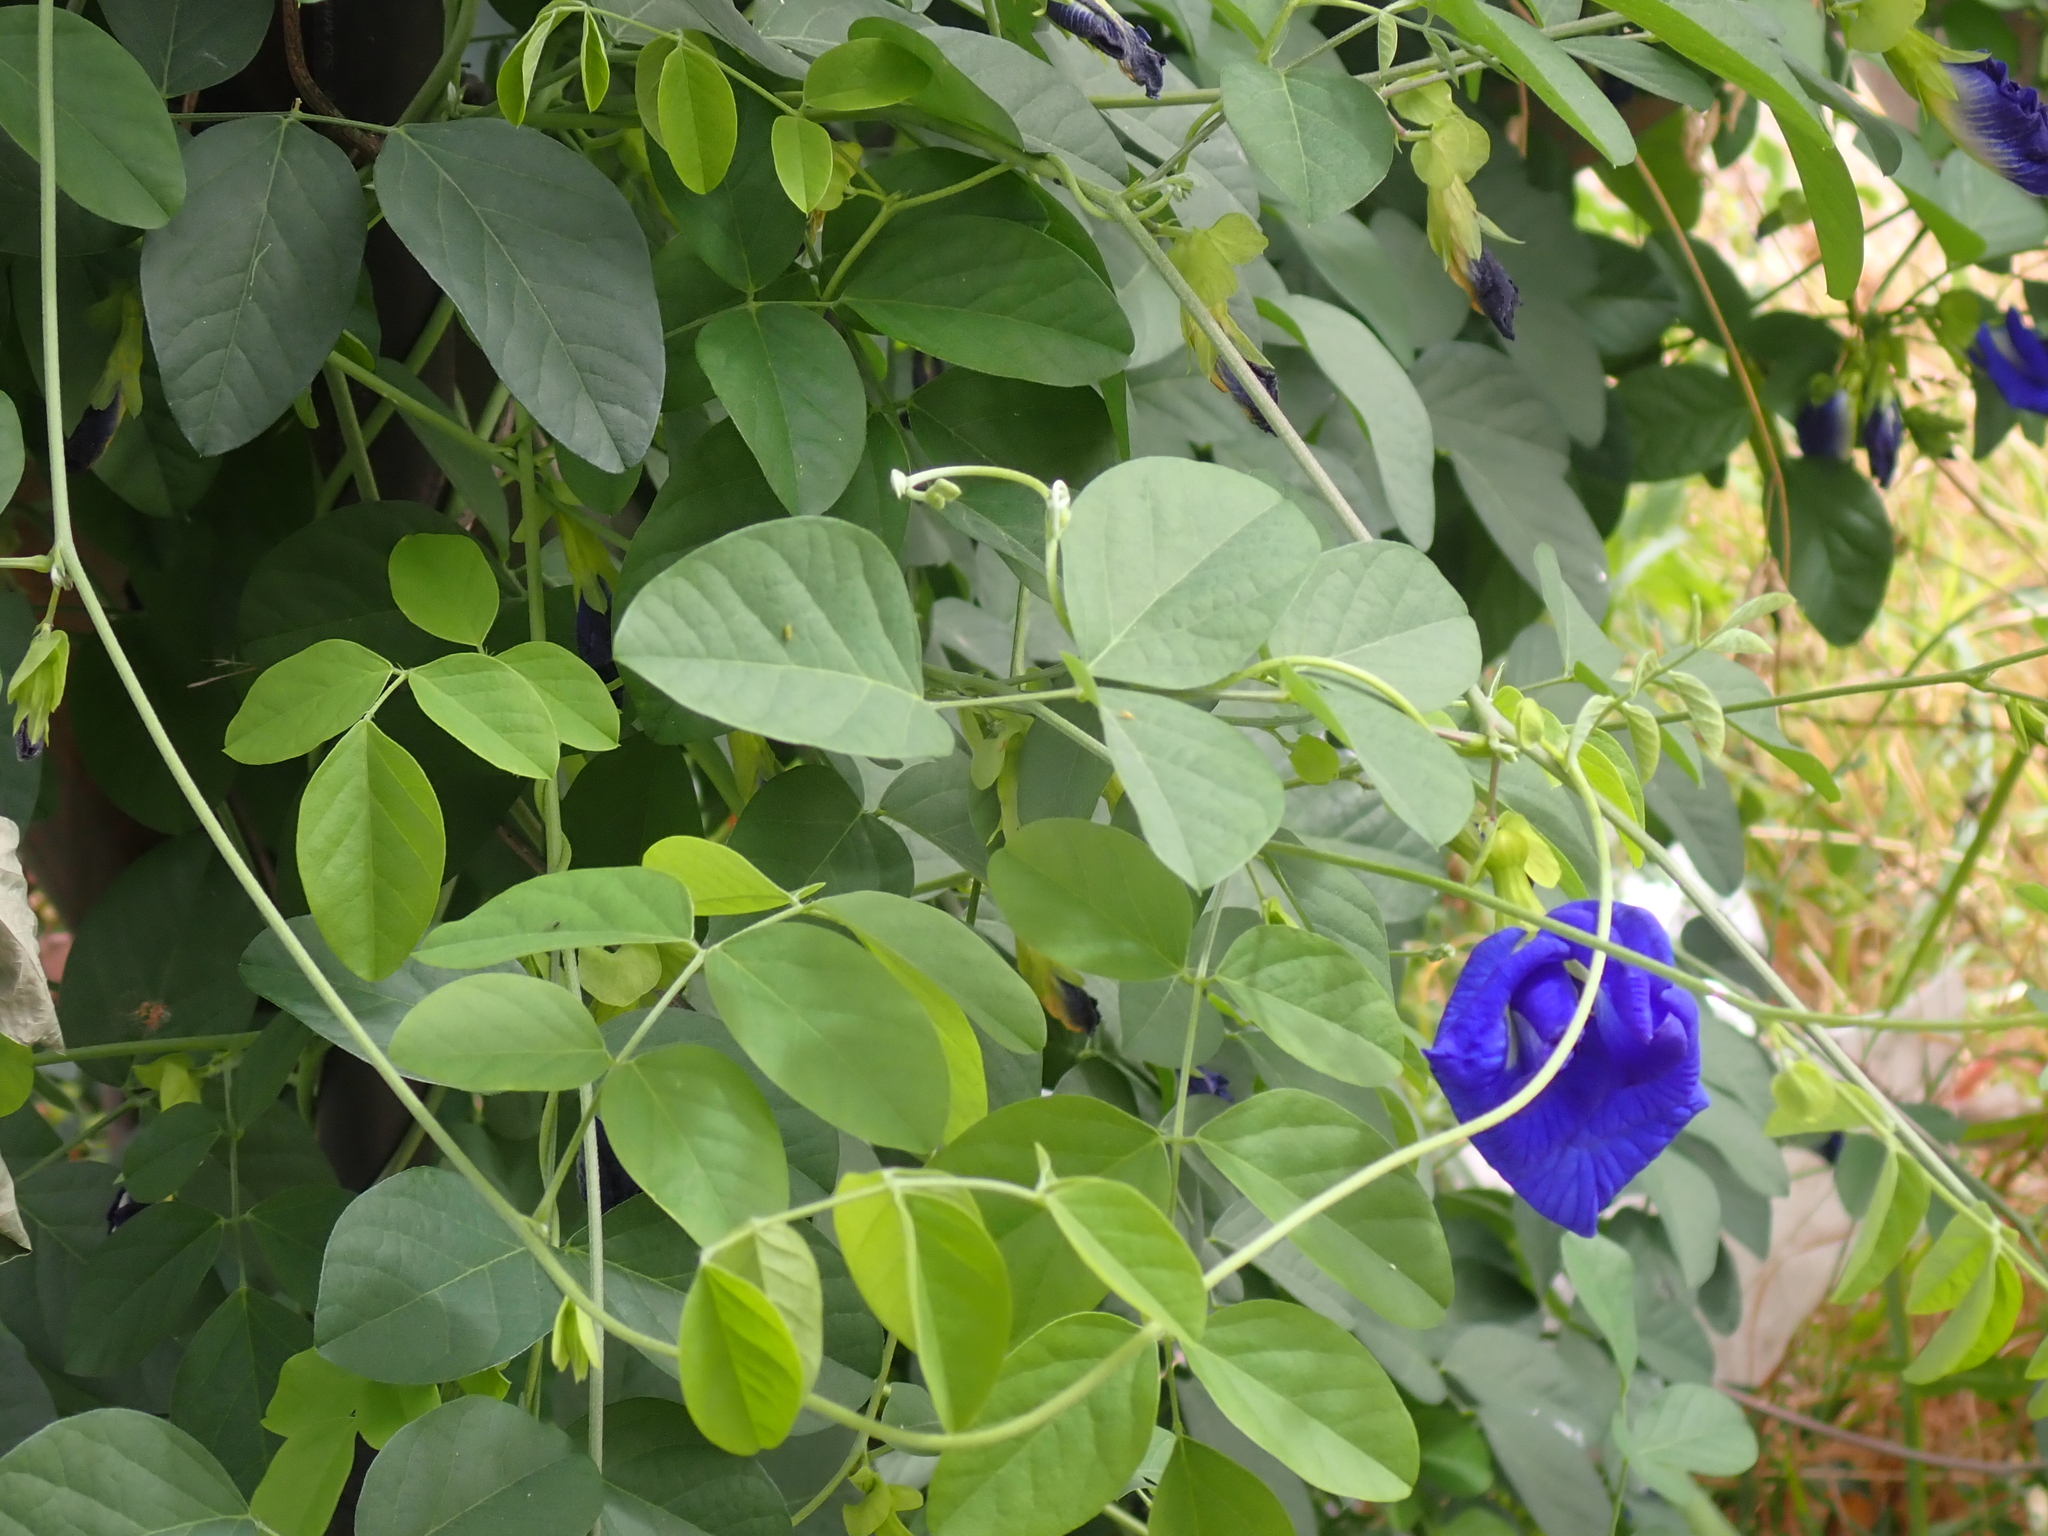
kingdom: Plantae
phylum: Tracheophyta
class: Magnoliopsida
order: Fabales
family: Fabaceae
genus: Clitoria
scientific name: Clitoria ternatea
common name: Asian pigeonwings
